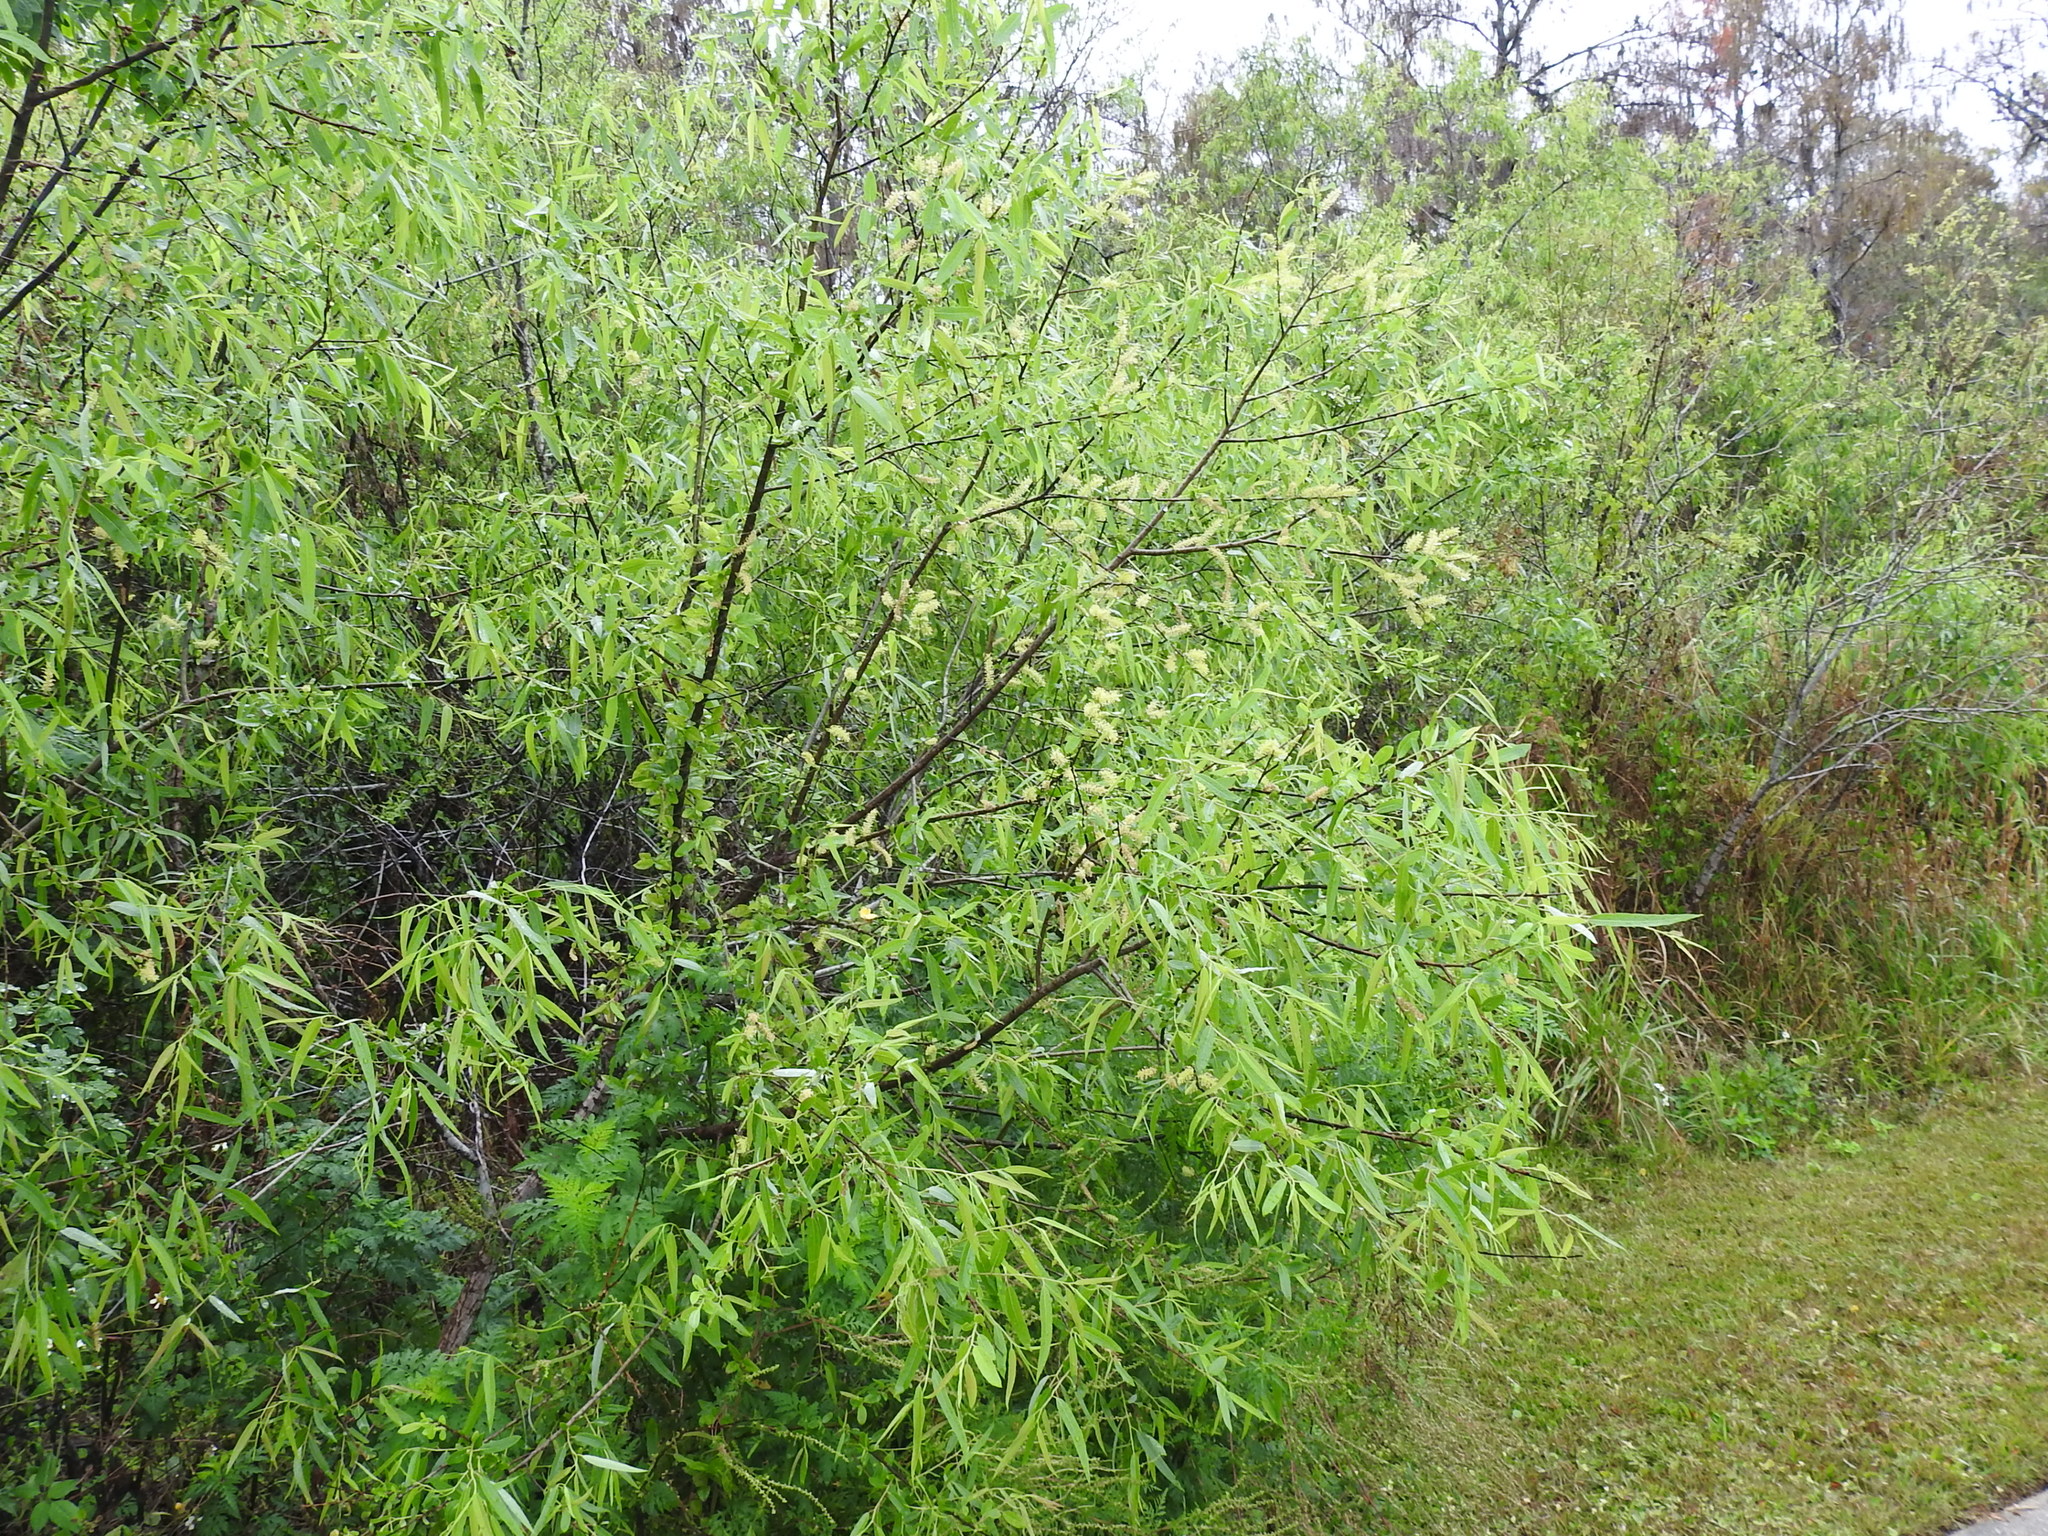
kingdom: Plantae
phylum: Tracheophyta
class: Magnoliopsida
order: Malpighiales
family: Salicaceae
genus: Salix
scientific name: Salix caroliniana
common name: Carolina willow
